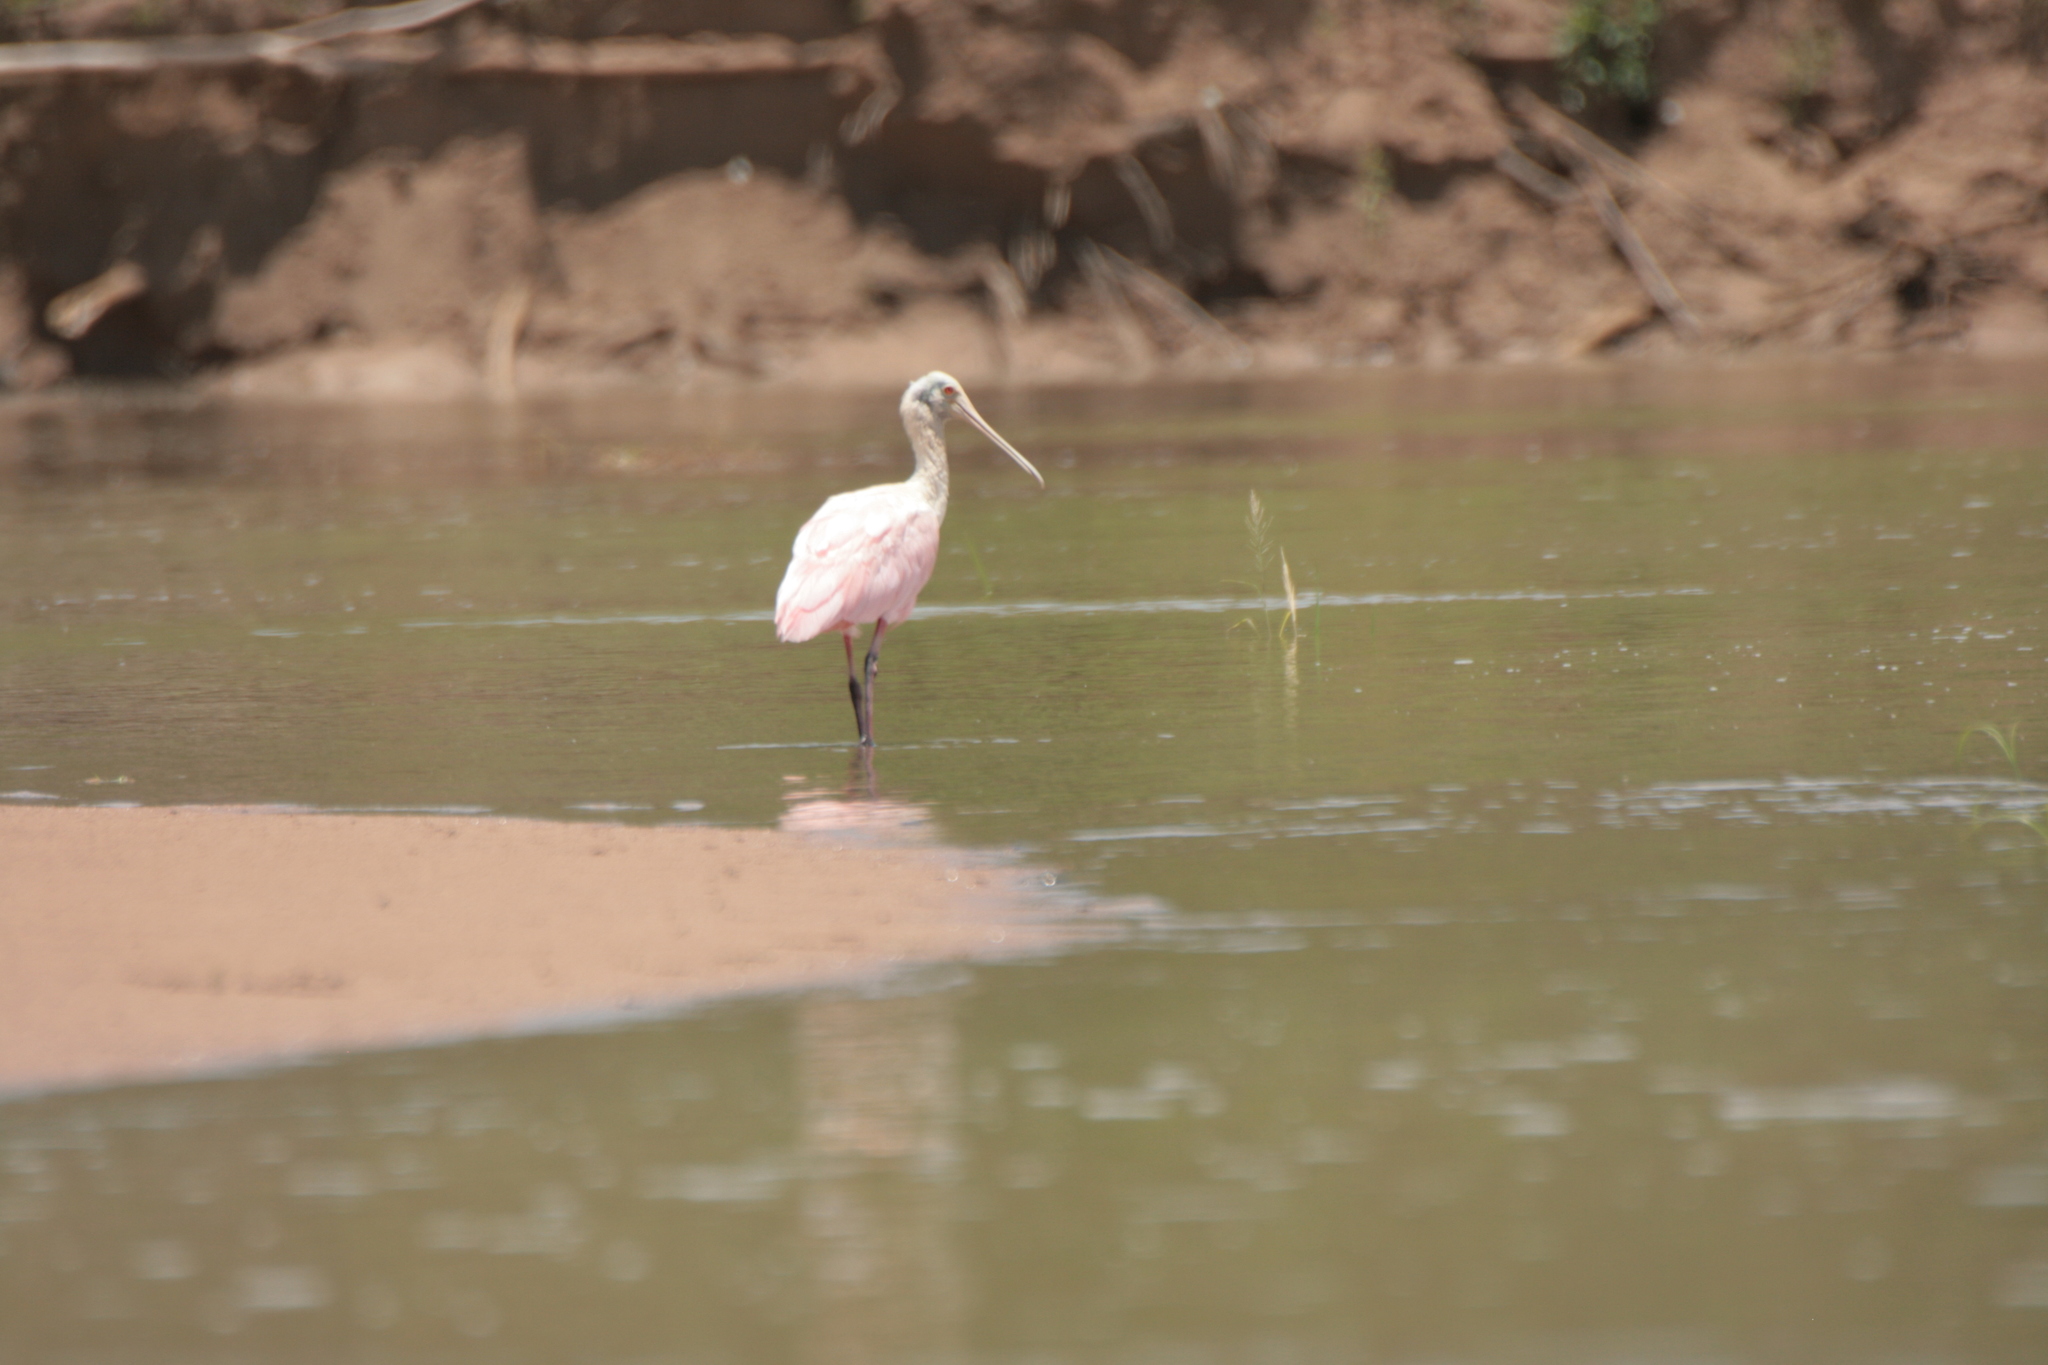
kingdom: Animalia
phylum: Chordata
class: Aves
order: Pelecaniformes
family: Threskiornithidae
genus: Platalea
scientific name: Platalea ajaja
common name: Roseate spoonbill
